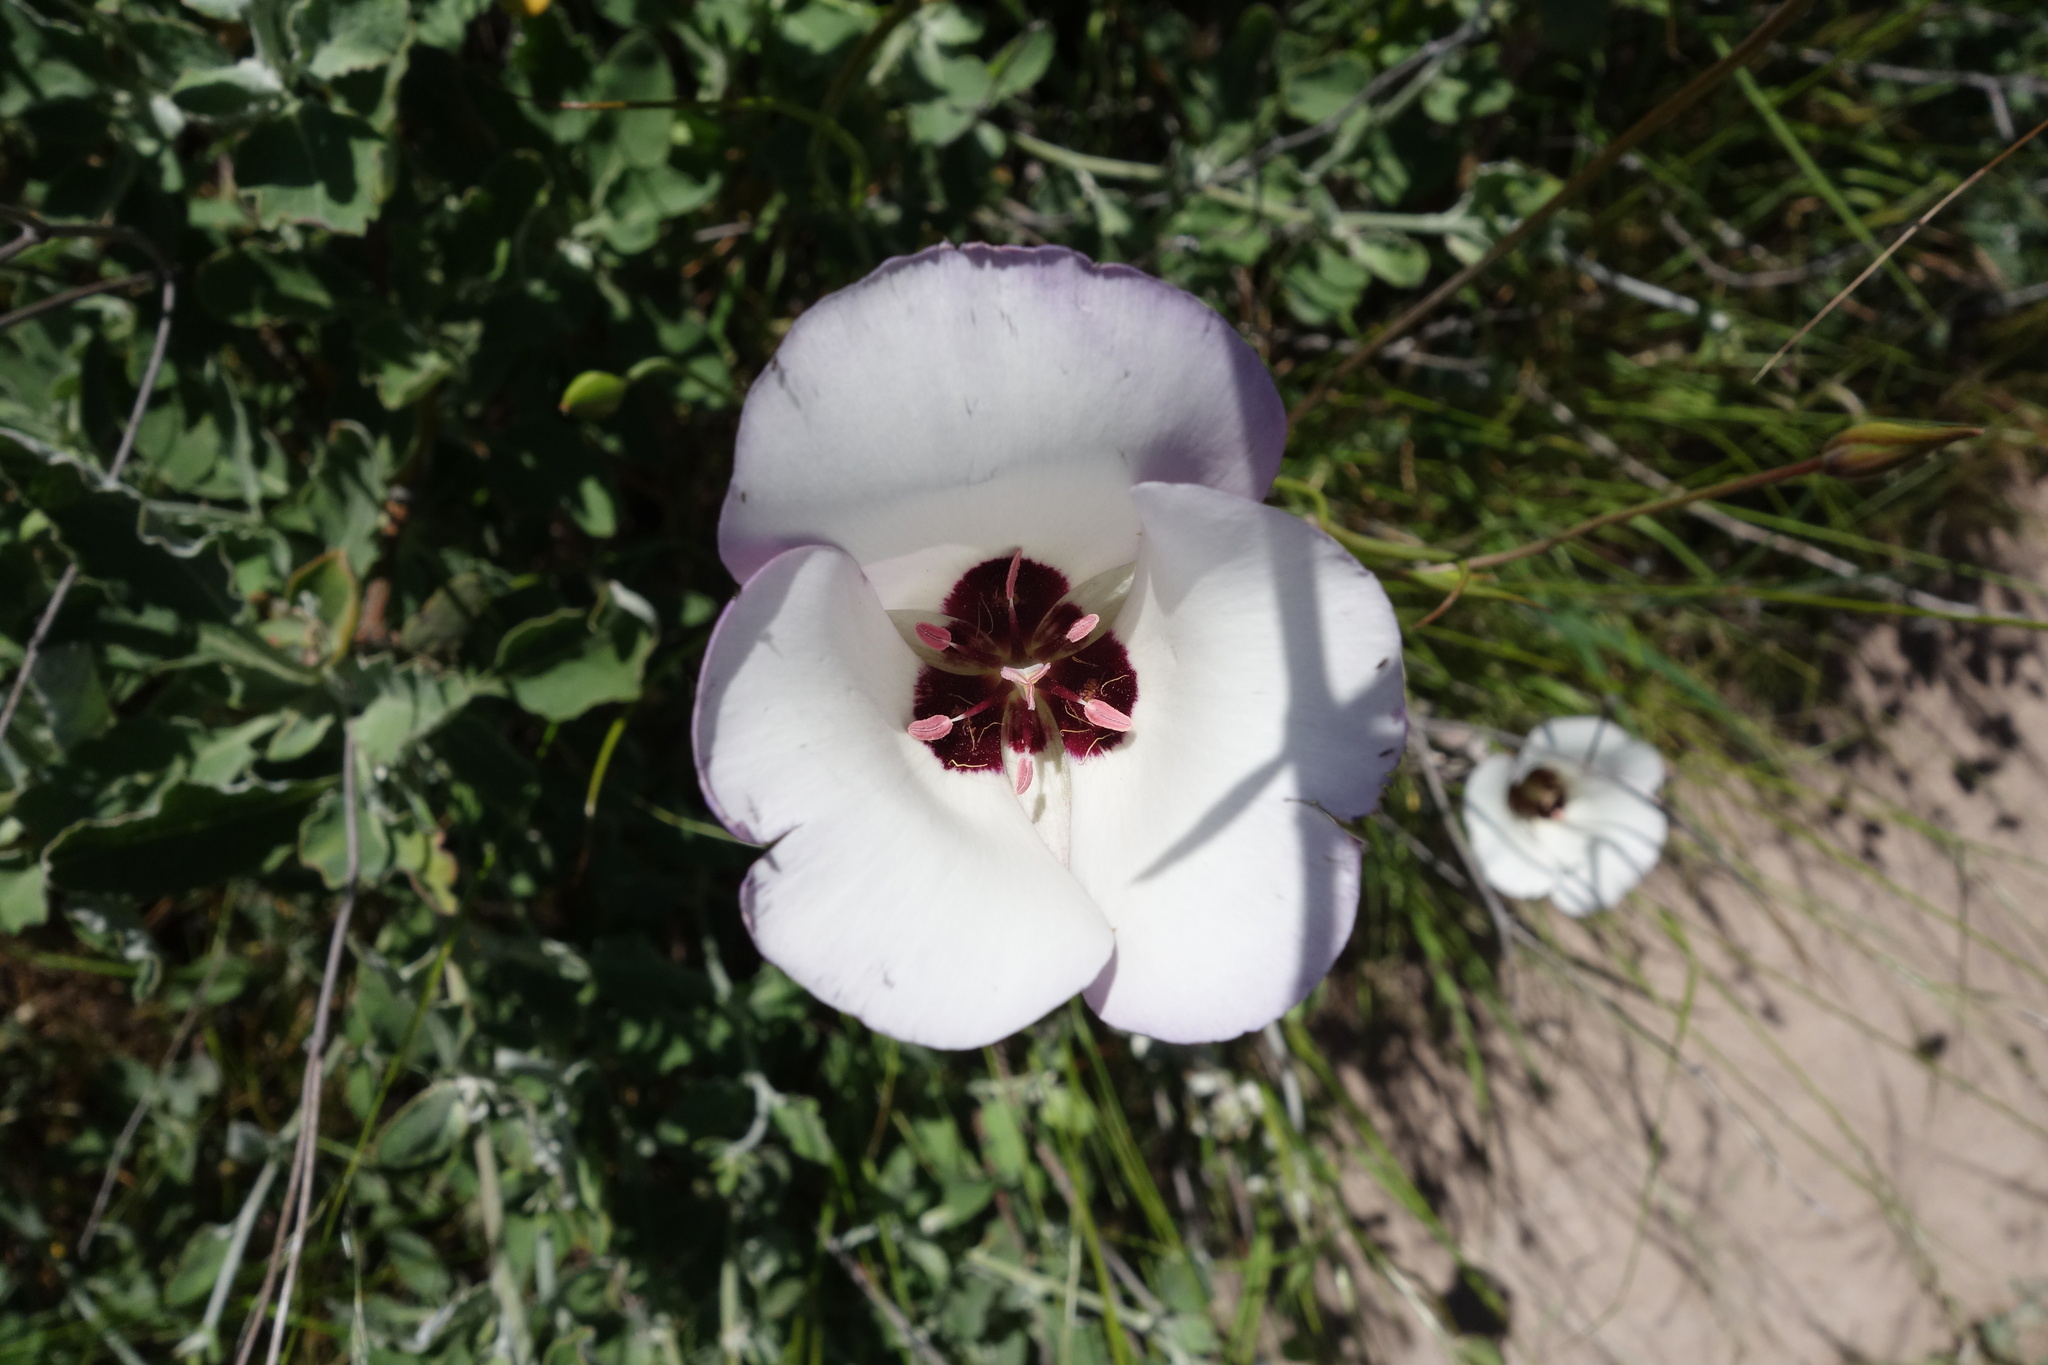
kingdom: Plantae
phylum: Tracheophyta
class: Liliopsida
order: Liliales
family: Liliaceae
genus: Calochortus
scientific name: Calochortus catalinae
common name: Catalina mariposa-lily
